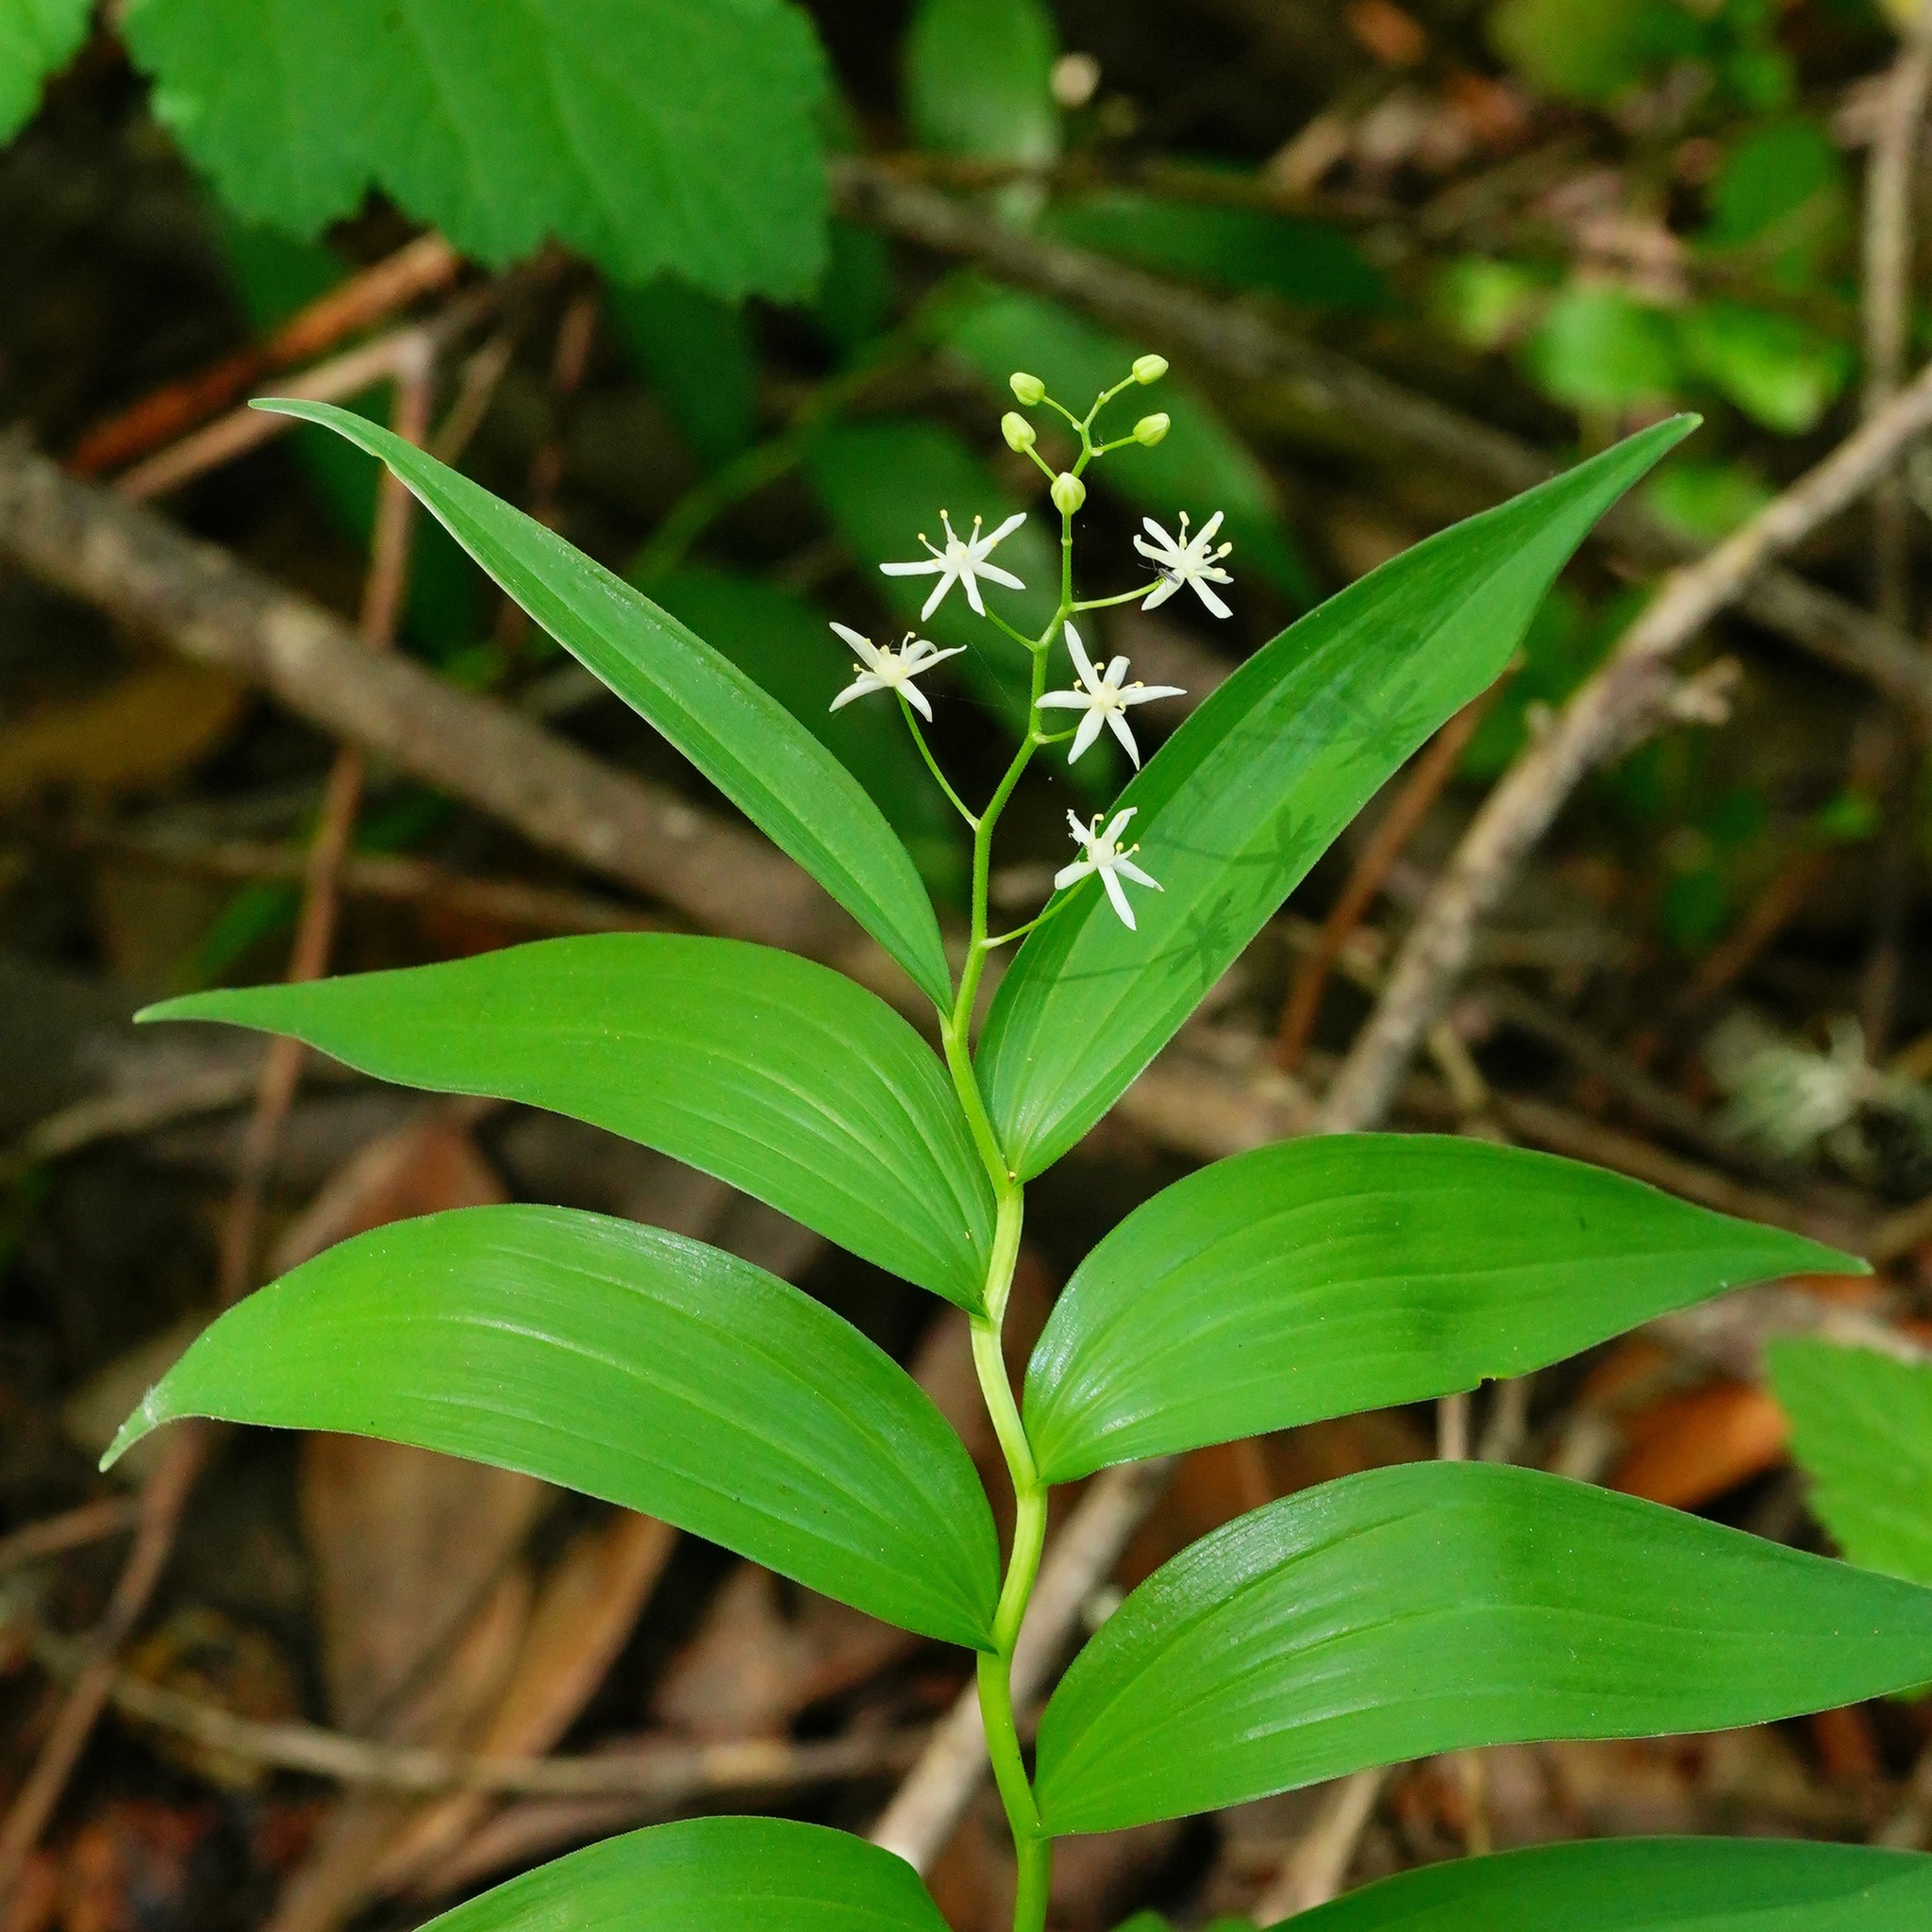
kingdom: Plantae
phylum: Tracheophyta
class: Liliopsida
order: Asparagales
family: Asparagaceae
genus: Maianthemum
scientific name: Maianthemum stellatum
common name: Little false solomon's seal
